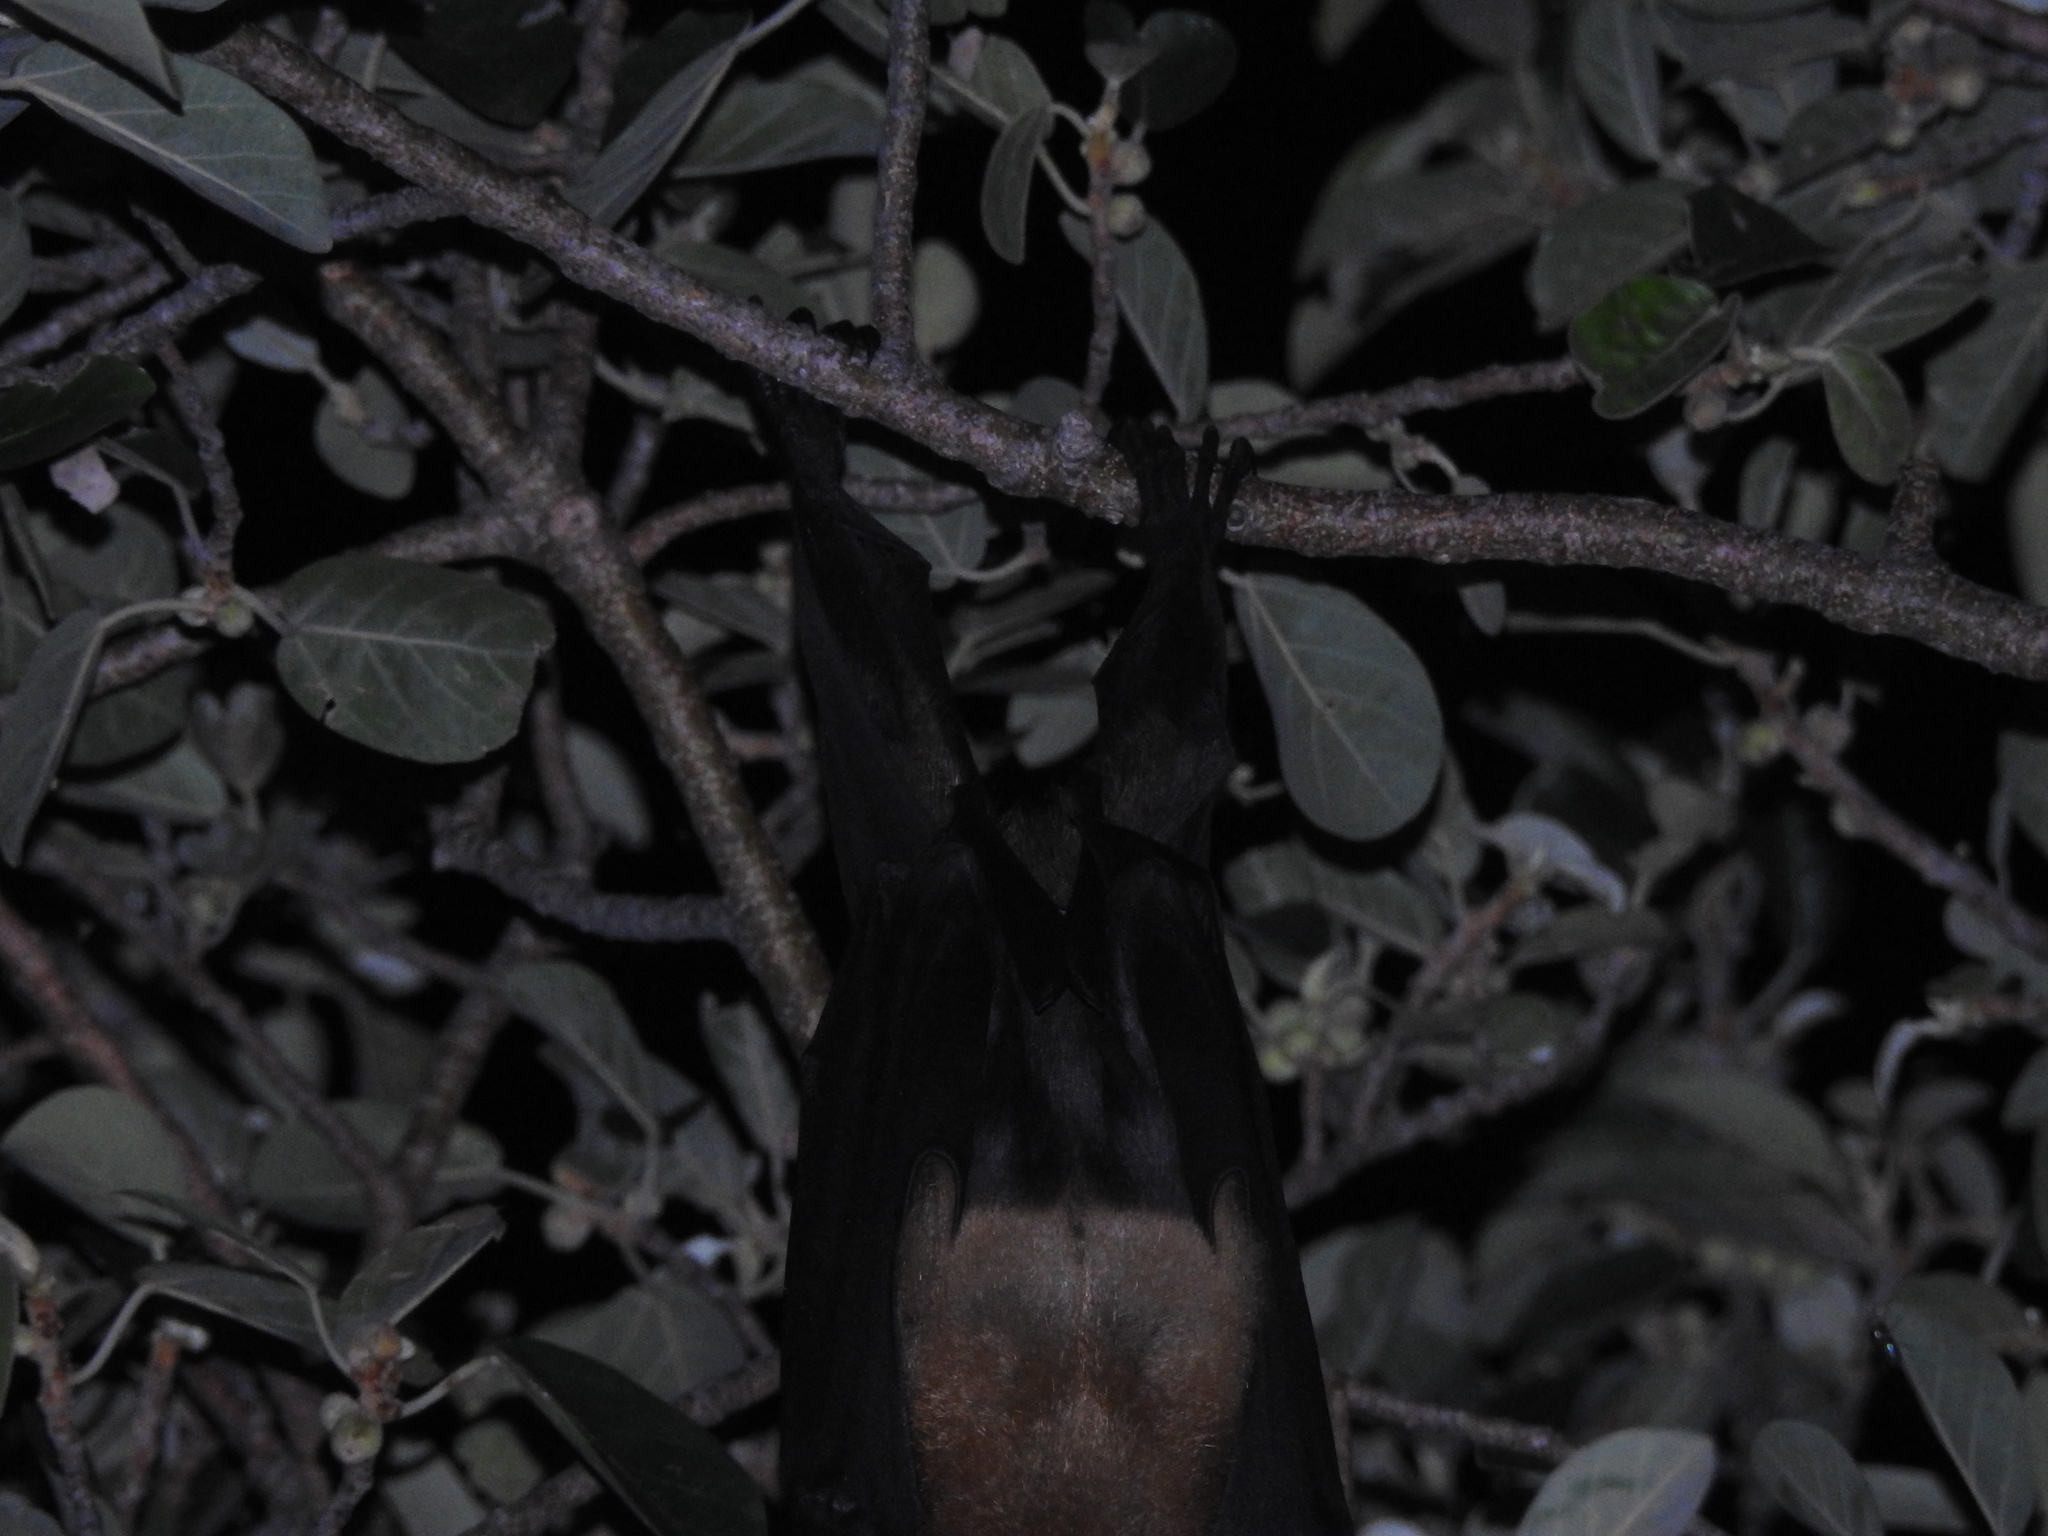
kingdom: Animalia
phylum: Chordata
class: Mammalia
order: Chiroptera
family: Pteropodidae
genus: Pteropus
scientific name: Pteropus vampyrus
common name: Large flying fox
